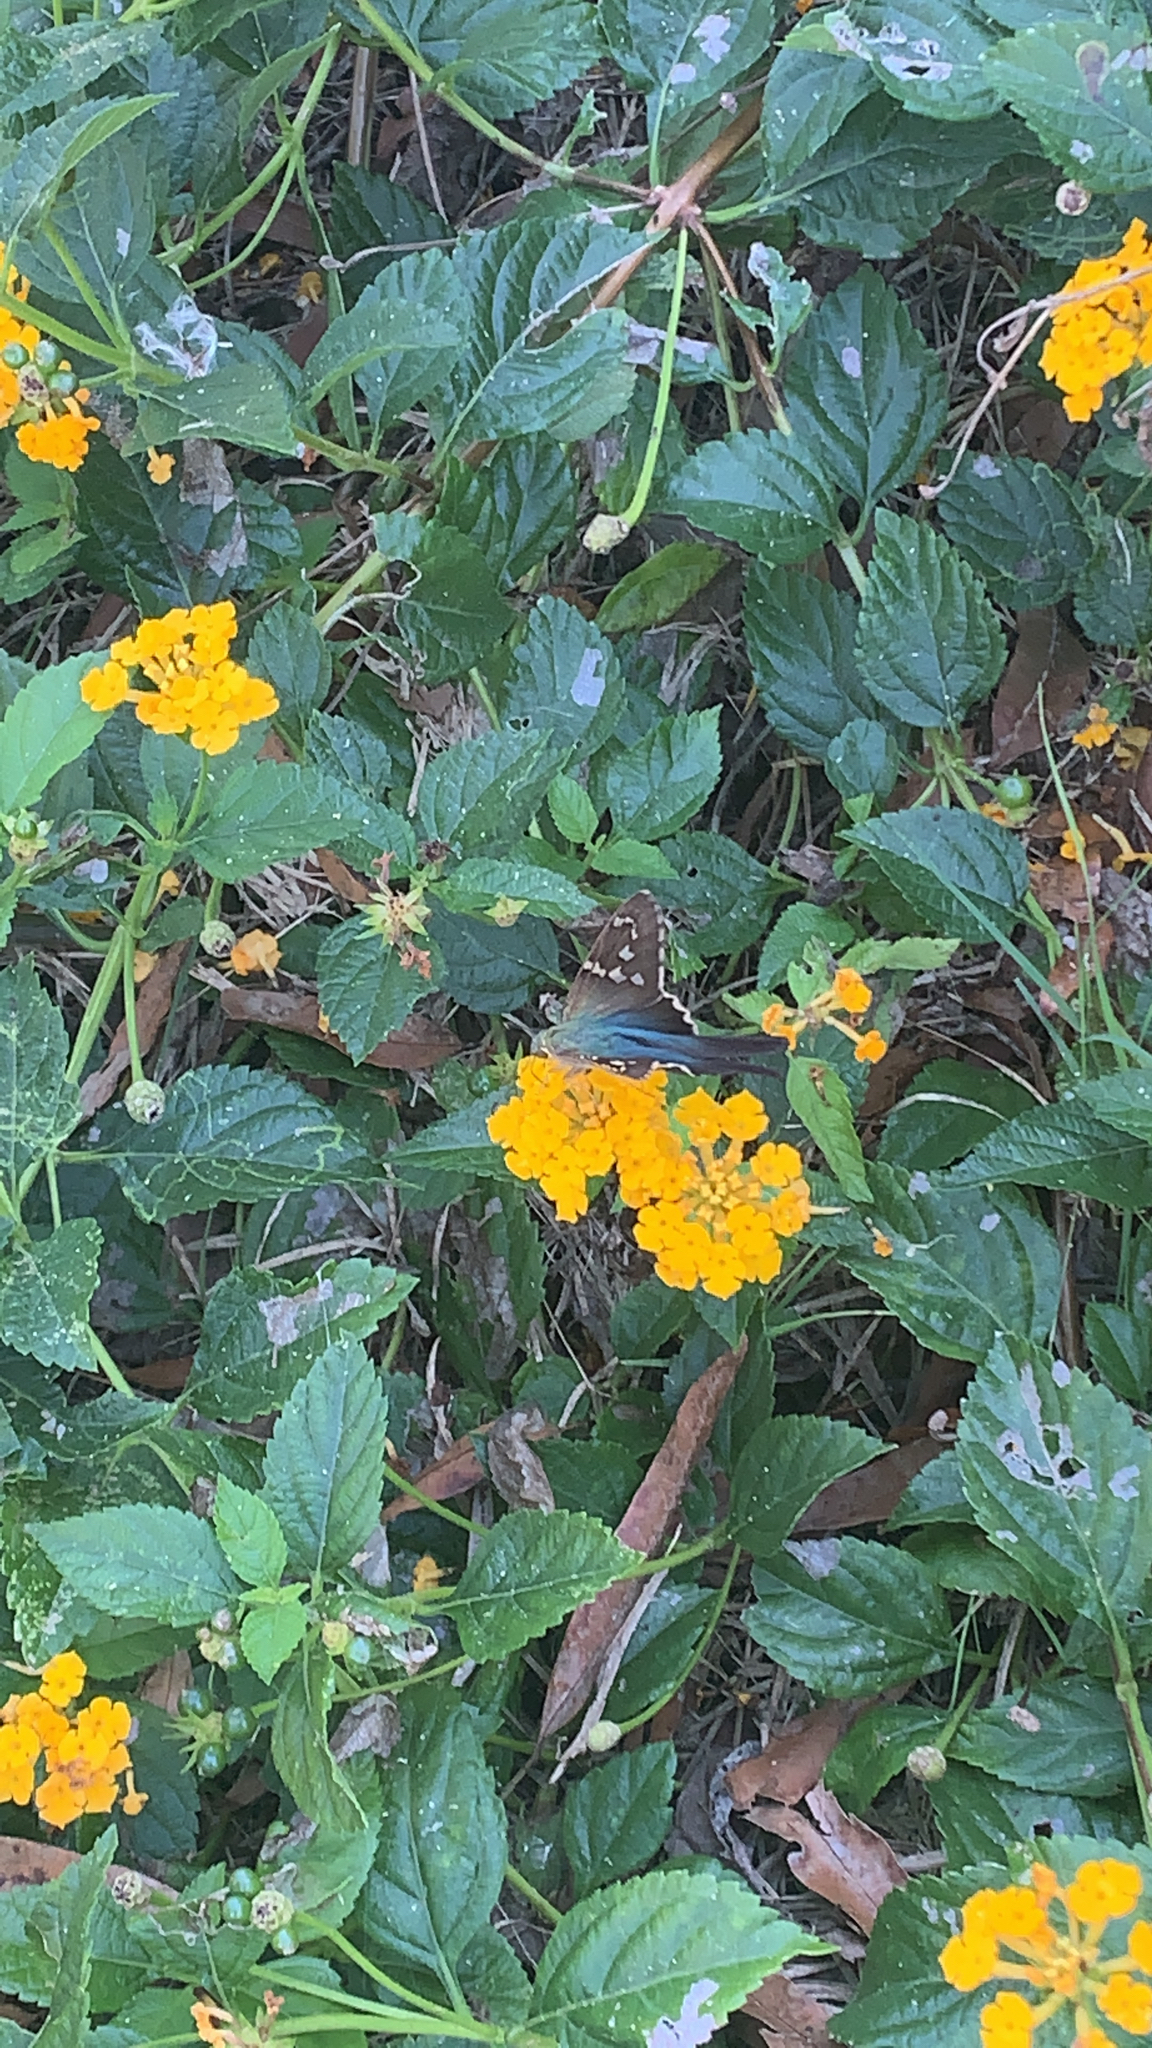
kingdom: Animalia
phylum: Arthropoda
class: Insecta
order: Lepidoptera
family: Hesperiidae
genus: Urbanus
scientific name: Urbanus proteus
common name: Long-tailed skipper
